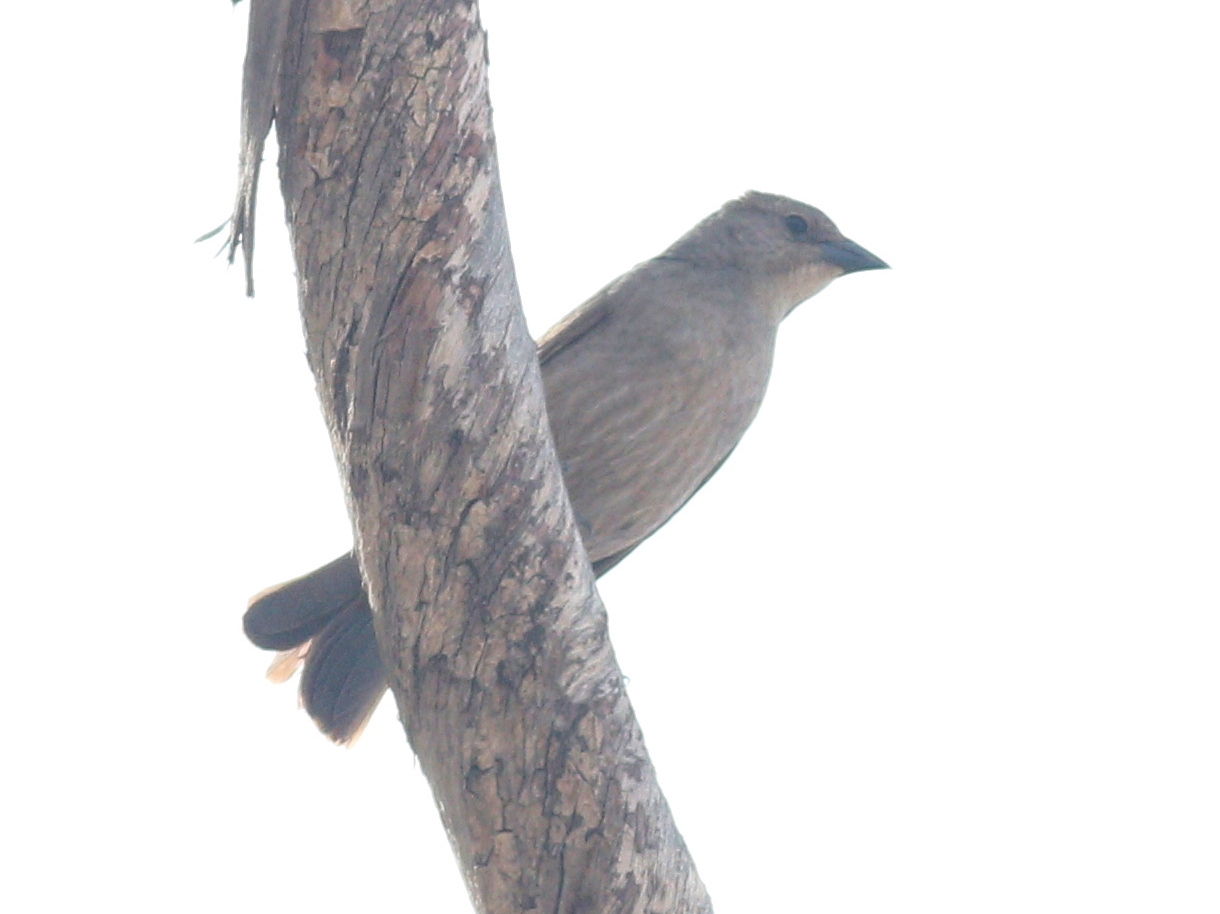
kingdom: Animalia
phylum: Chordata
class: Aves
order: Passeriformes
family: Icteridae
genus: Molothrus
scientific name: Molothrus bonariensis
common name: Shiny cowbird
